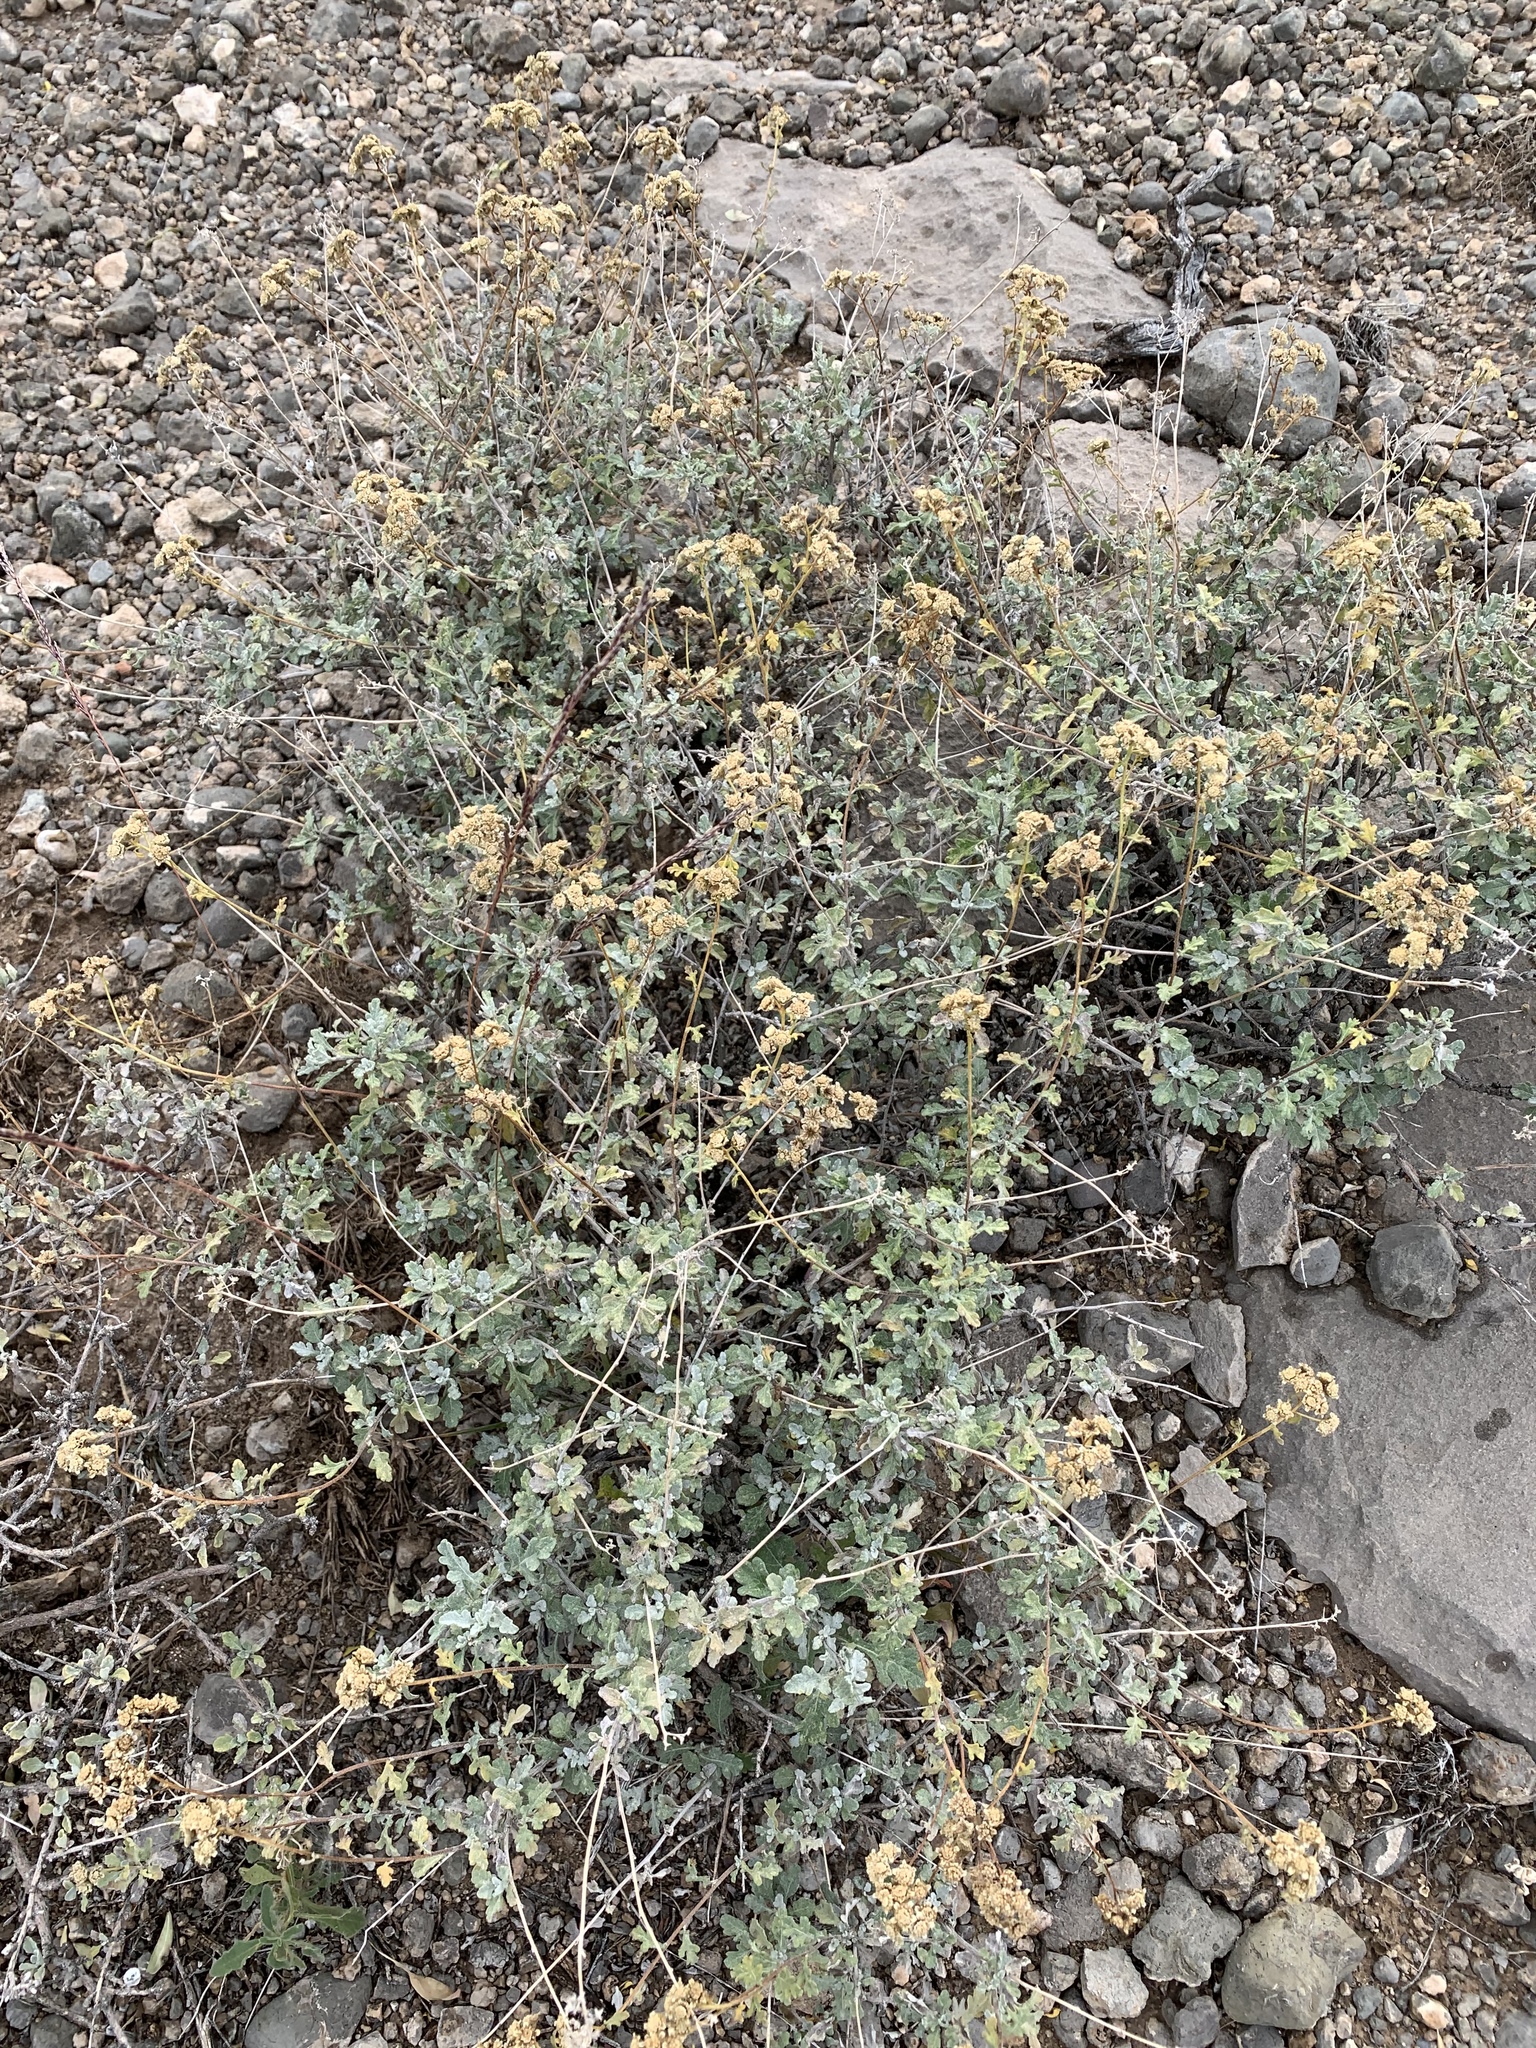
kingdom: Plantae
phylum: Tracheophyta
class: Magnoliopsida
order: Asterales
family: Asteraceae
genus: Parthenium
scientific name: Parthenium incanum
